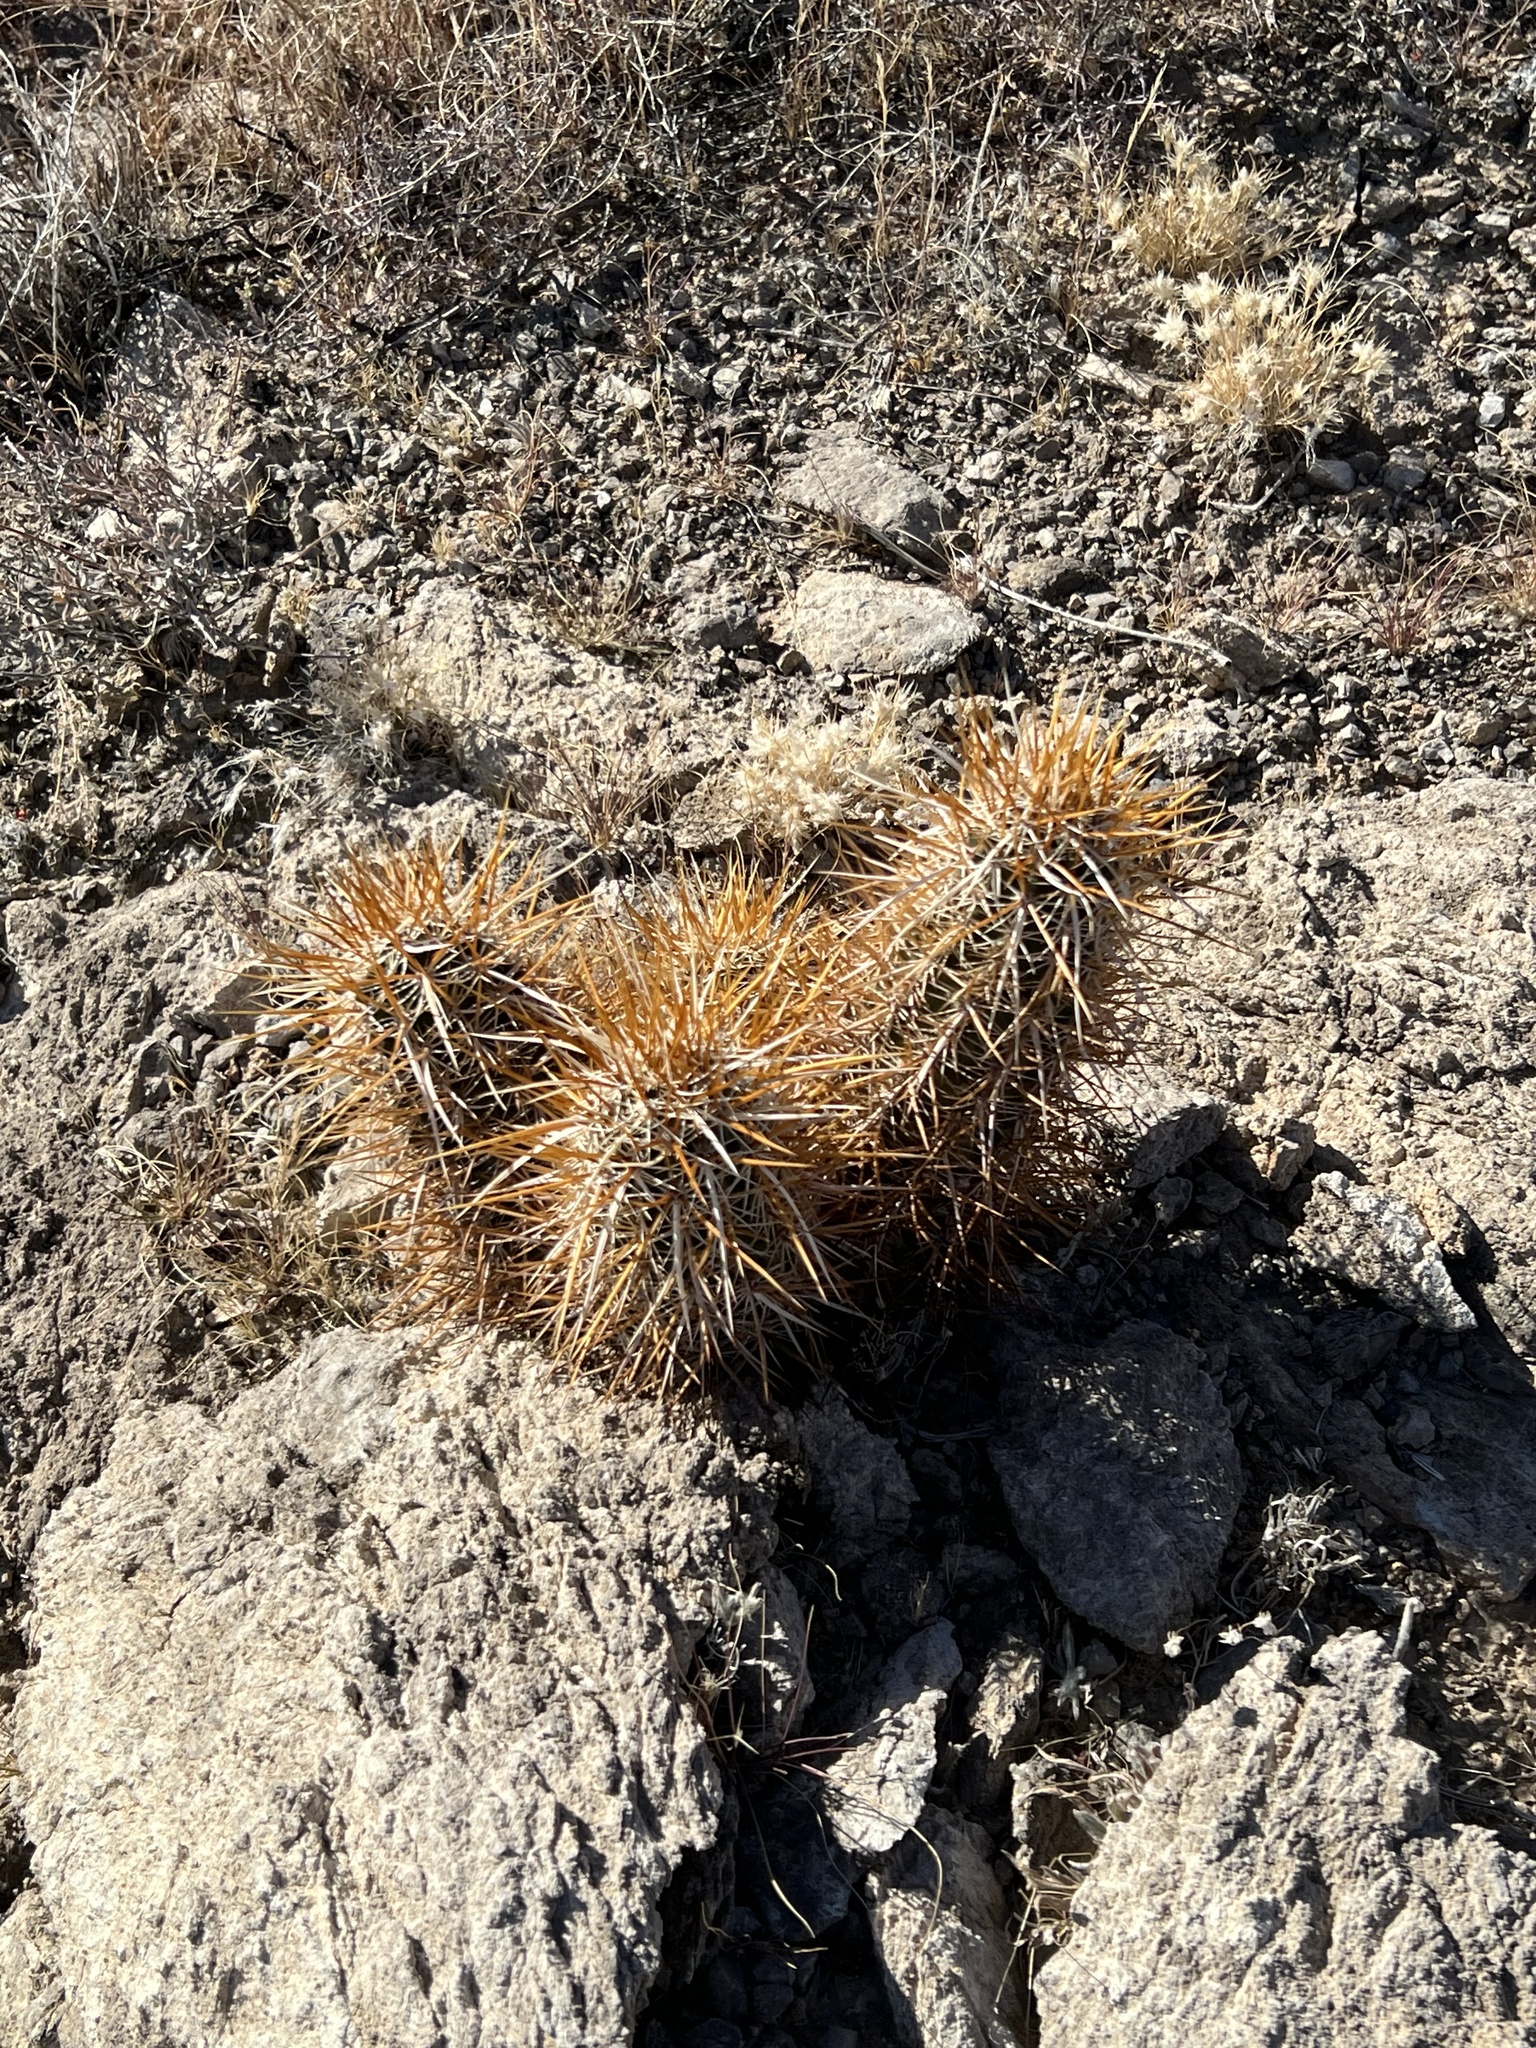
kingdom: Plantae
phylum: Tracheophyta
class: Magnoliopsida
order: Caryophyllales
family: Cactaceae
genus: Echinocereus
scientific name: Echinocereus engelmannii
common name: Engelmann's hedgehog cactus
